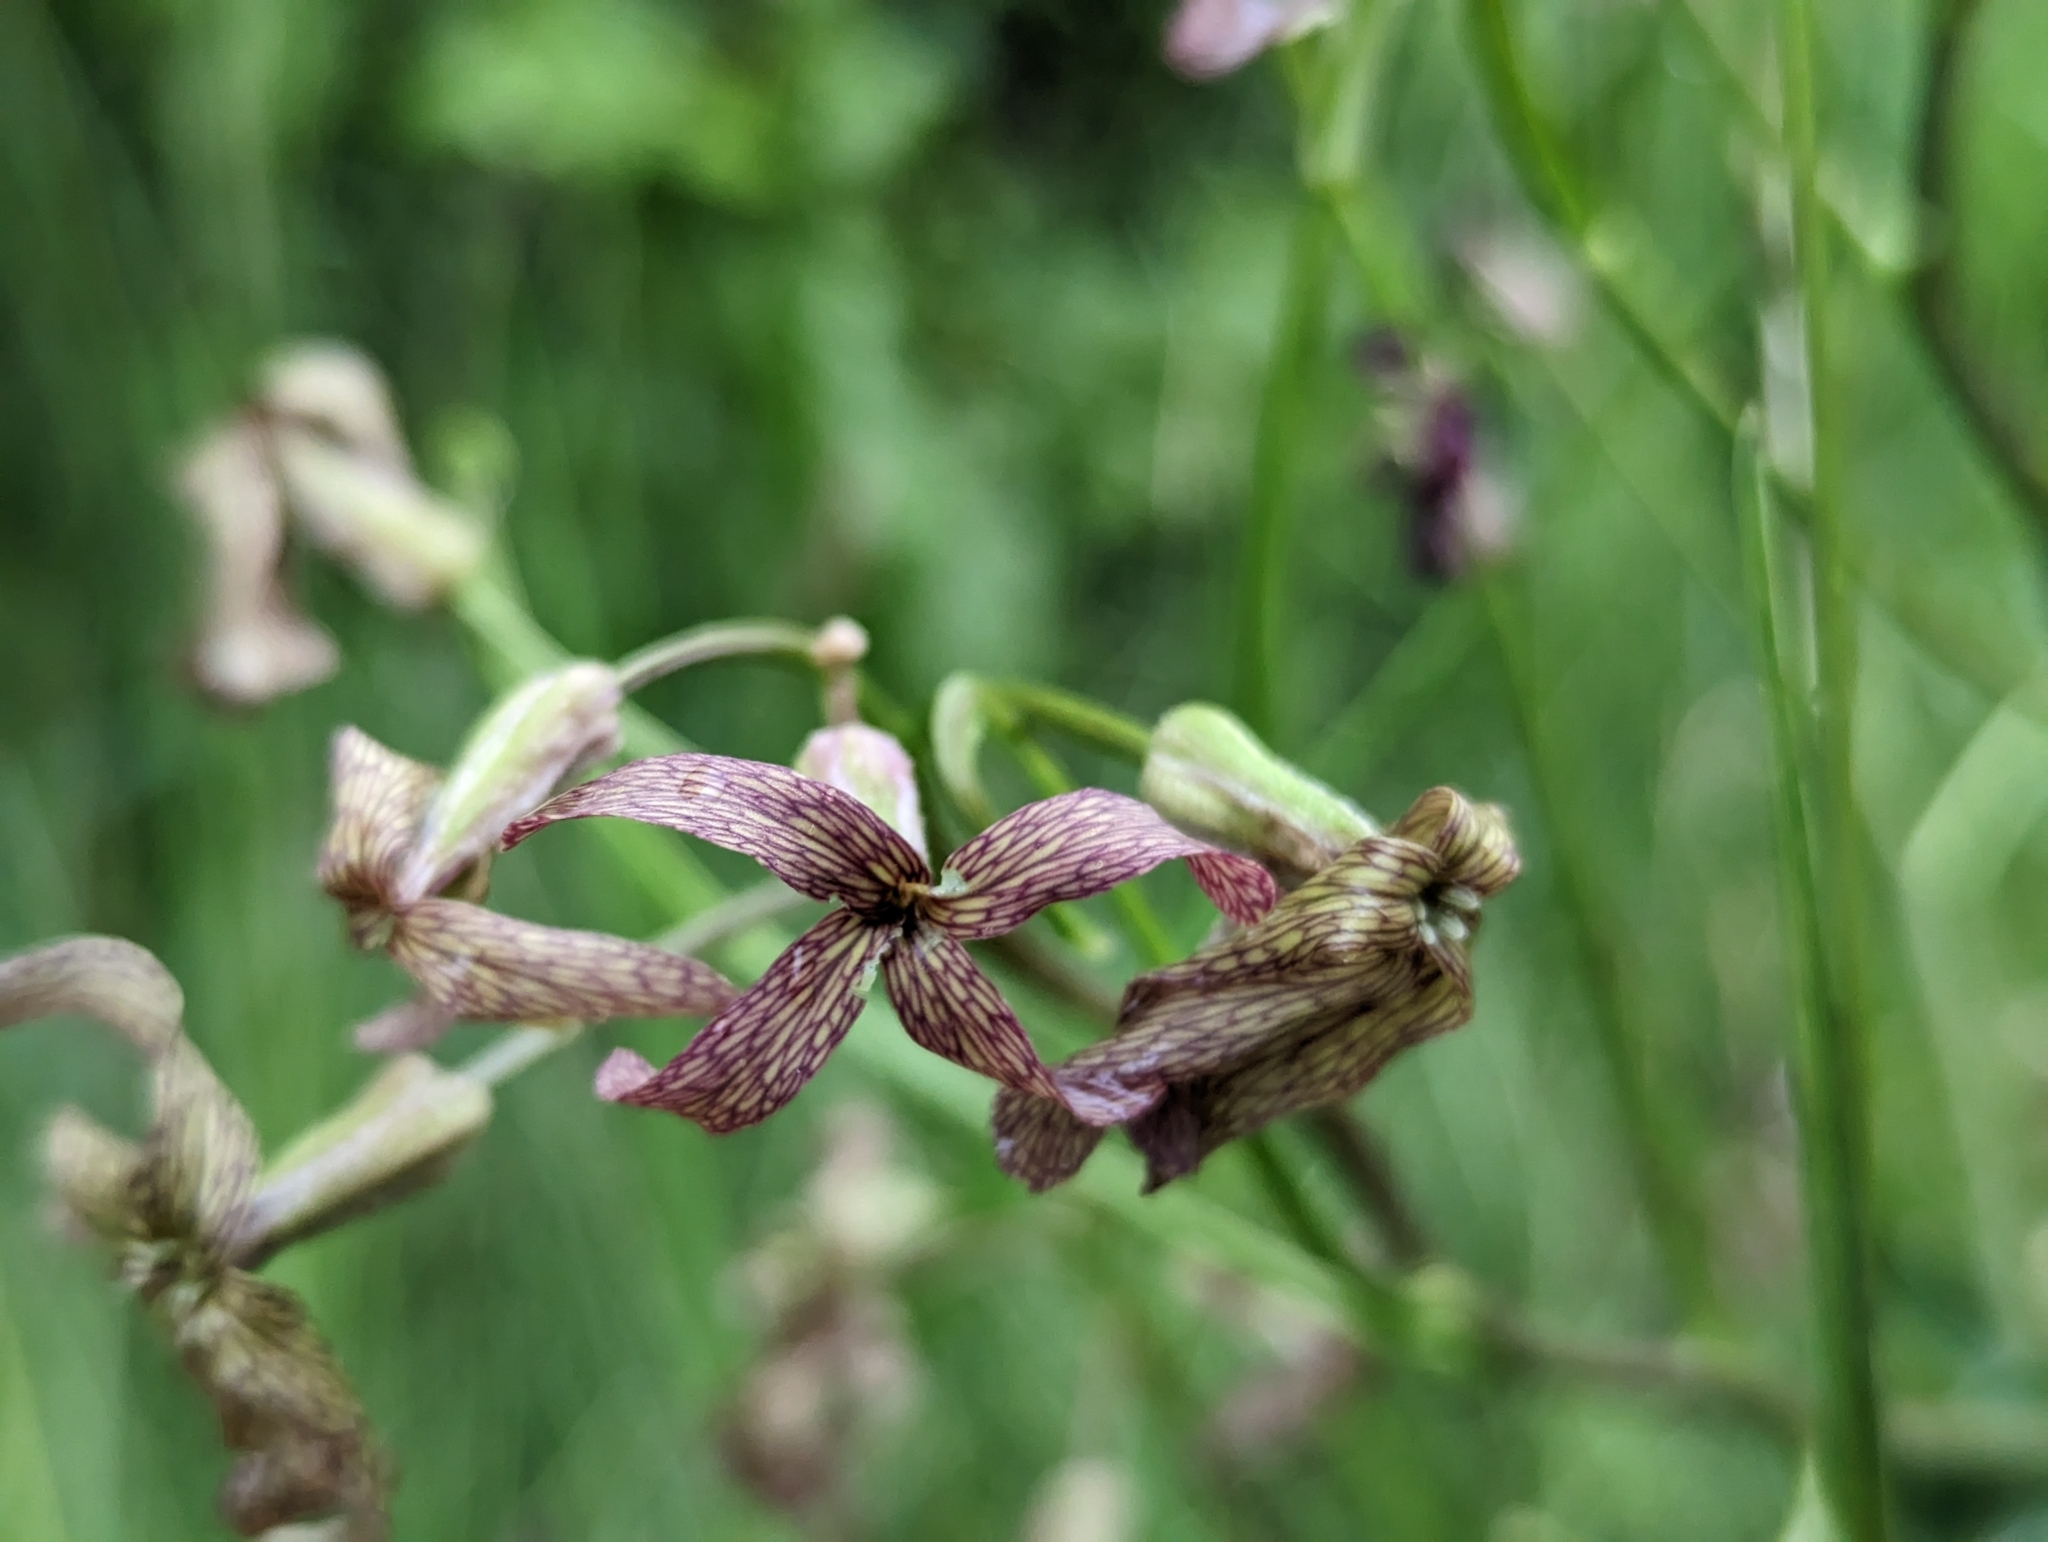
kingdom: Plantae
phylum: Tracheophyta
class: Magnoliopsida
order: Brassicales
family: Brassicaceae
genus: Hesperis
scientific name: Hesperis tristis
